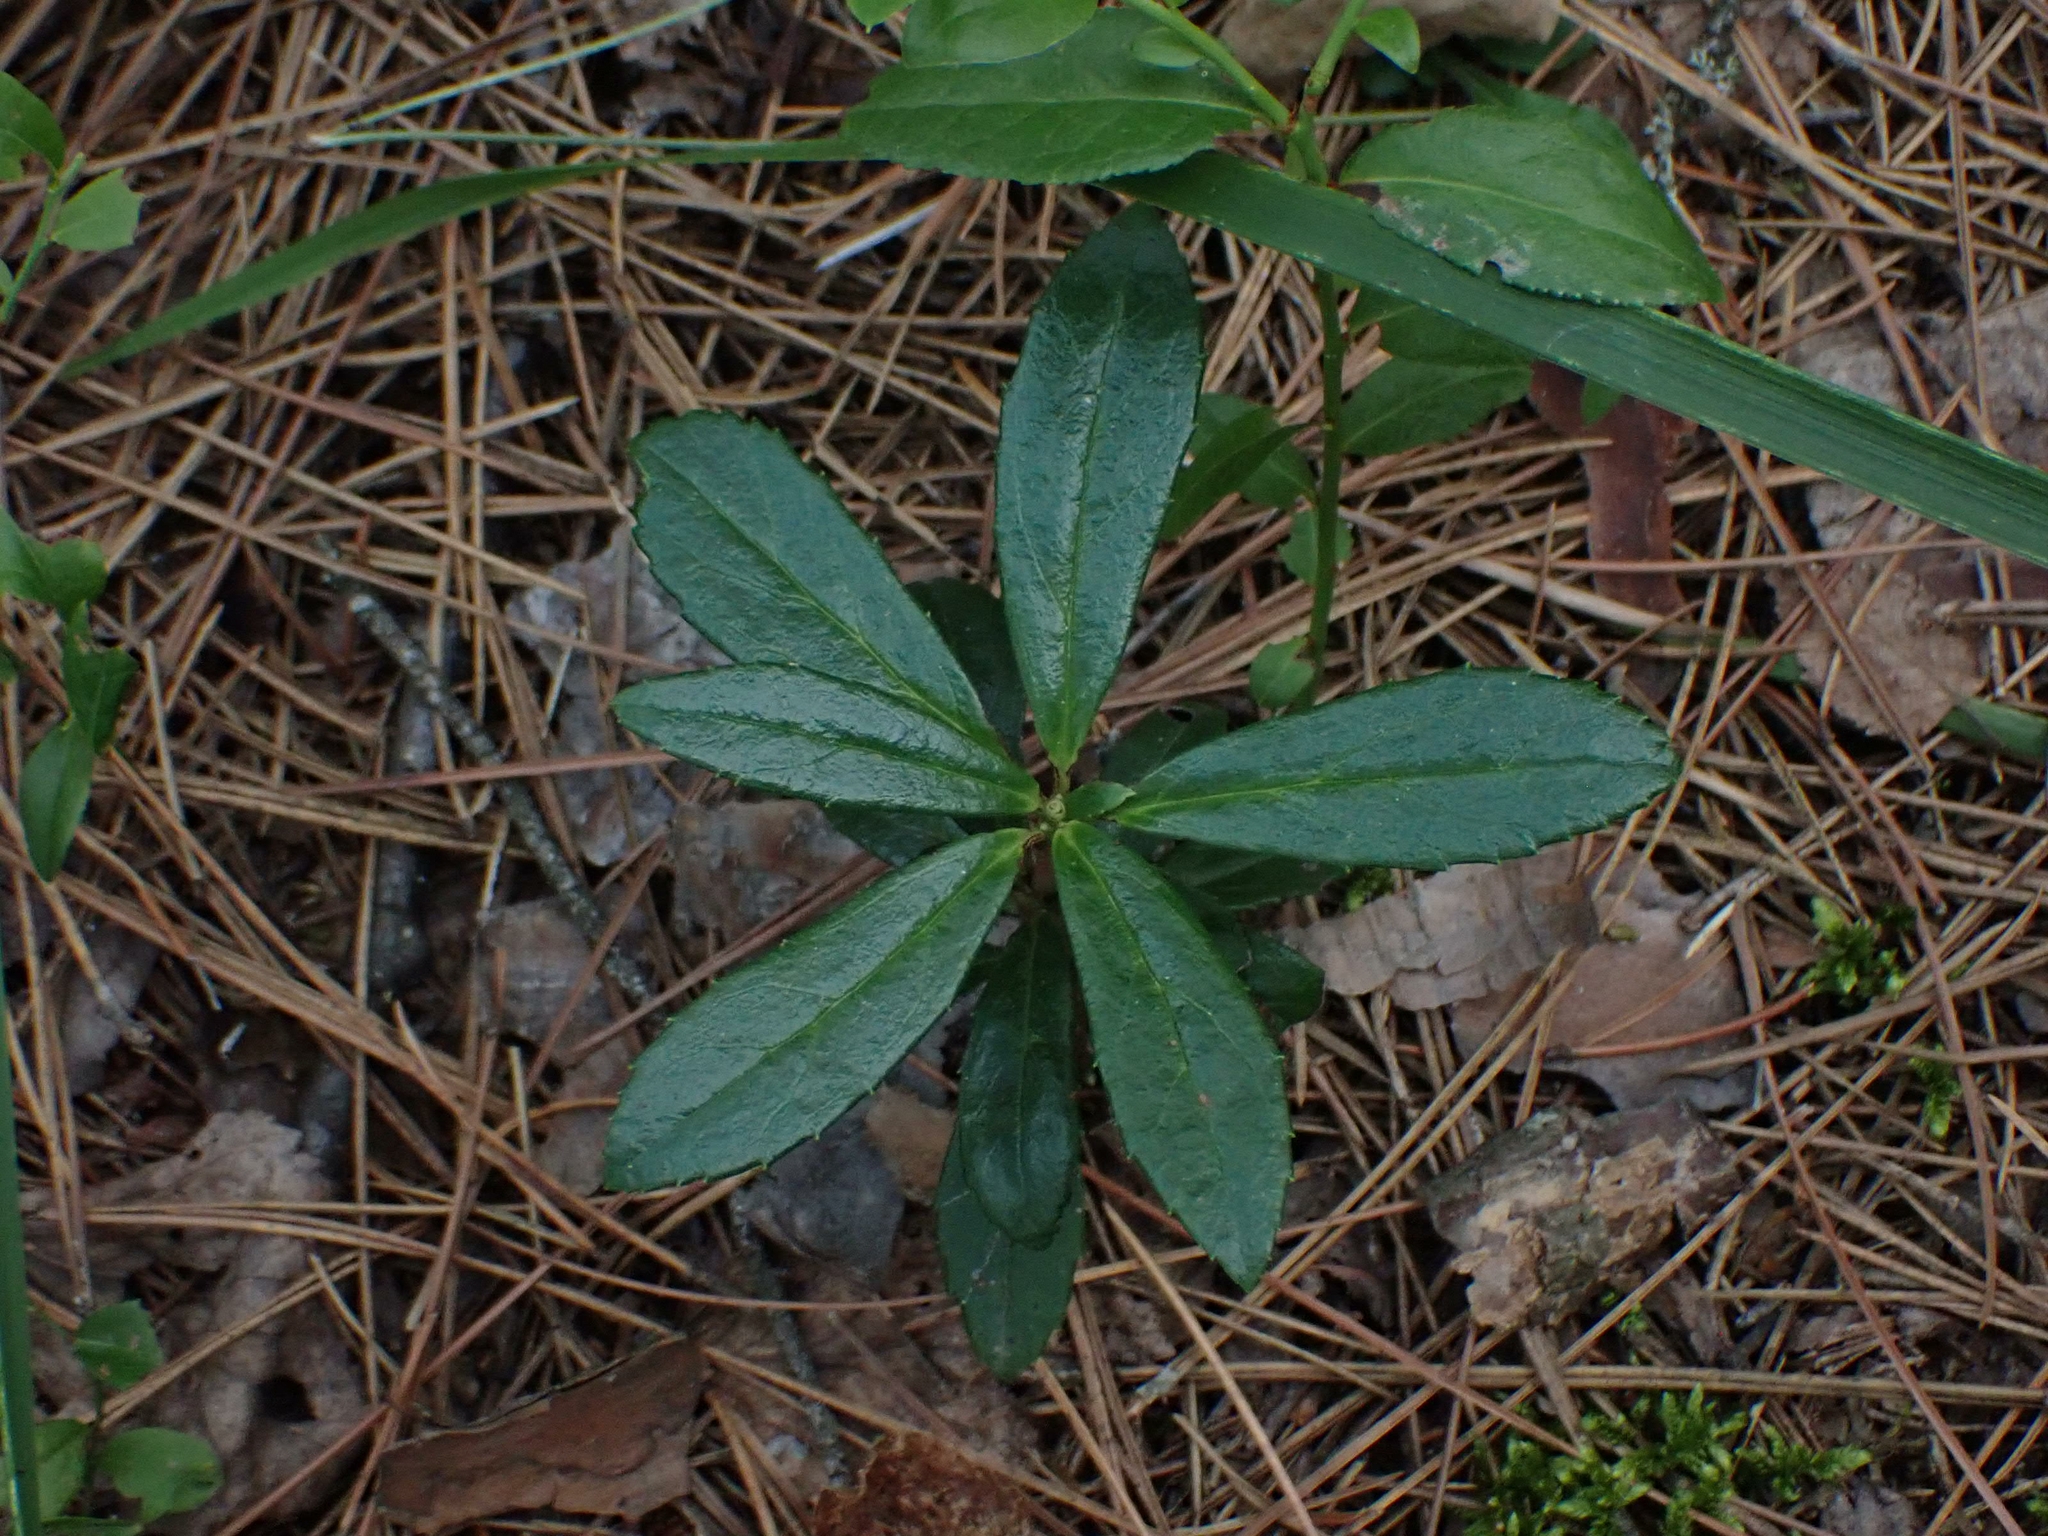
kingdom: Plantae
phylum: Tracheophyta
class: Magnoliopsida
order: Ericales
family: Ericaceae
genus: Chimaphila
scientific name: Chimaphila umbellata
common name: Pipsissewa
